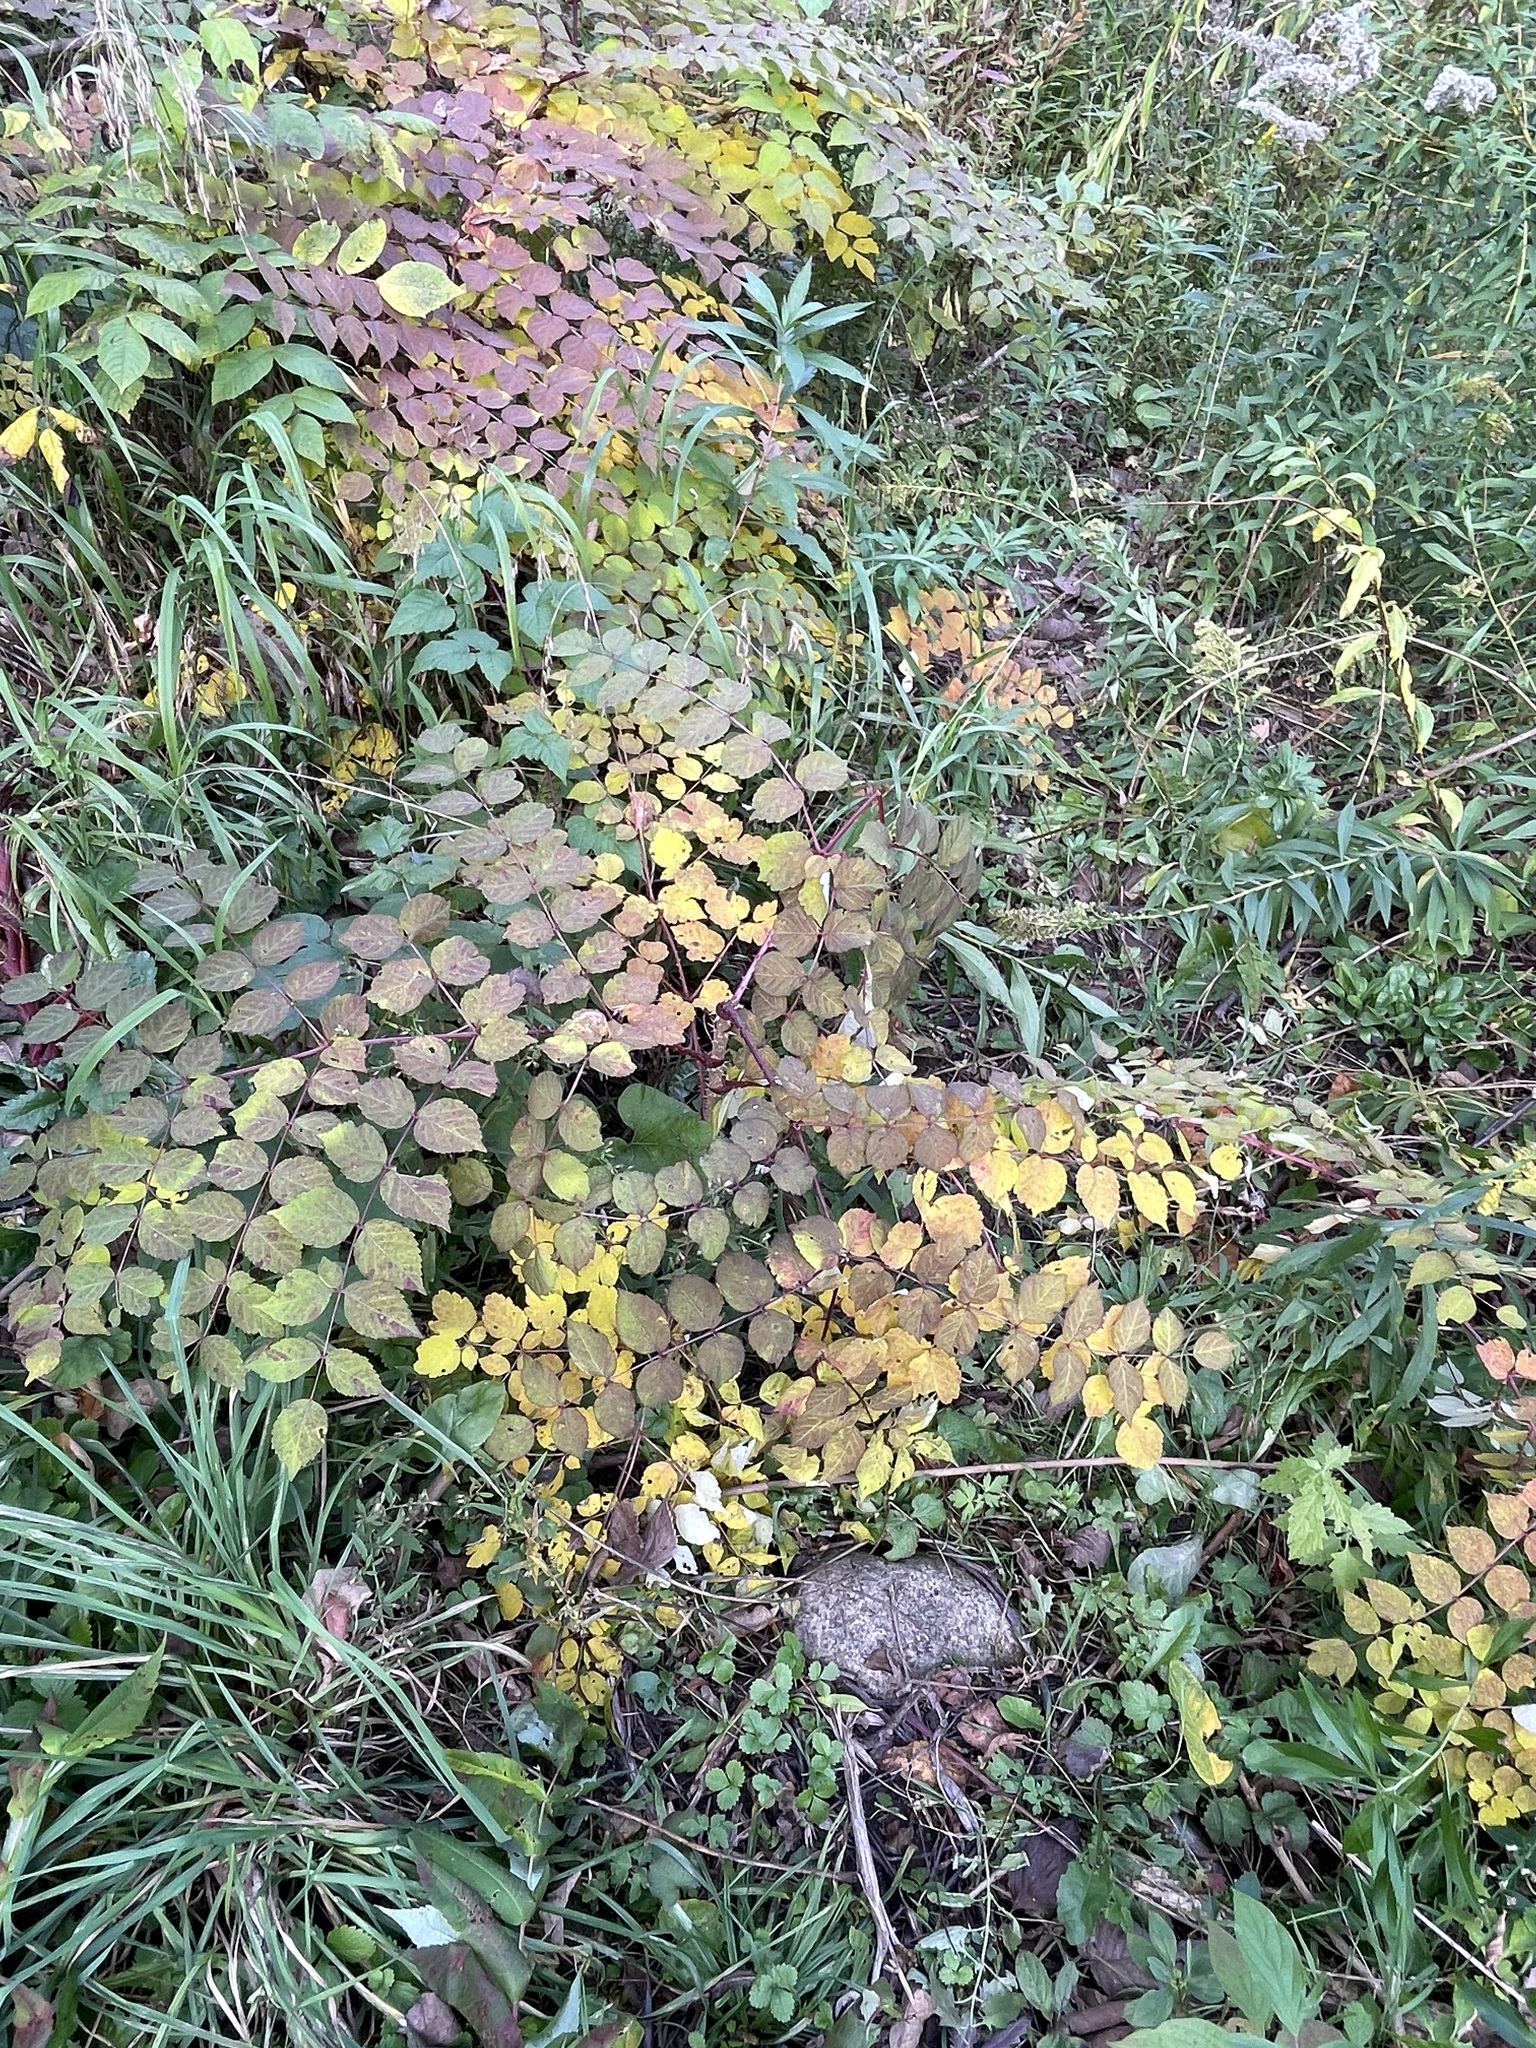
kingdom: Plantae
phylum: Tracheophyta
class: Magnoliopsida
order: Apiales
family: Araliaceae
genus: Aralia
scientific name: Aralia elata
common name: Japanese angelica-tree
